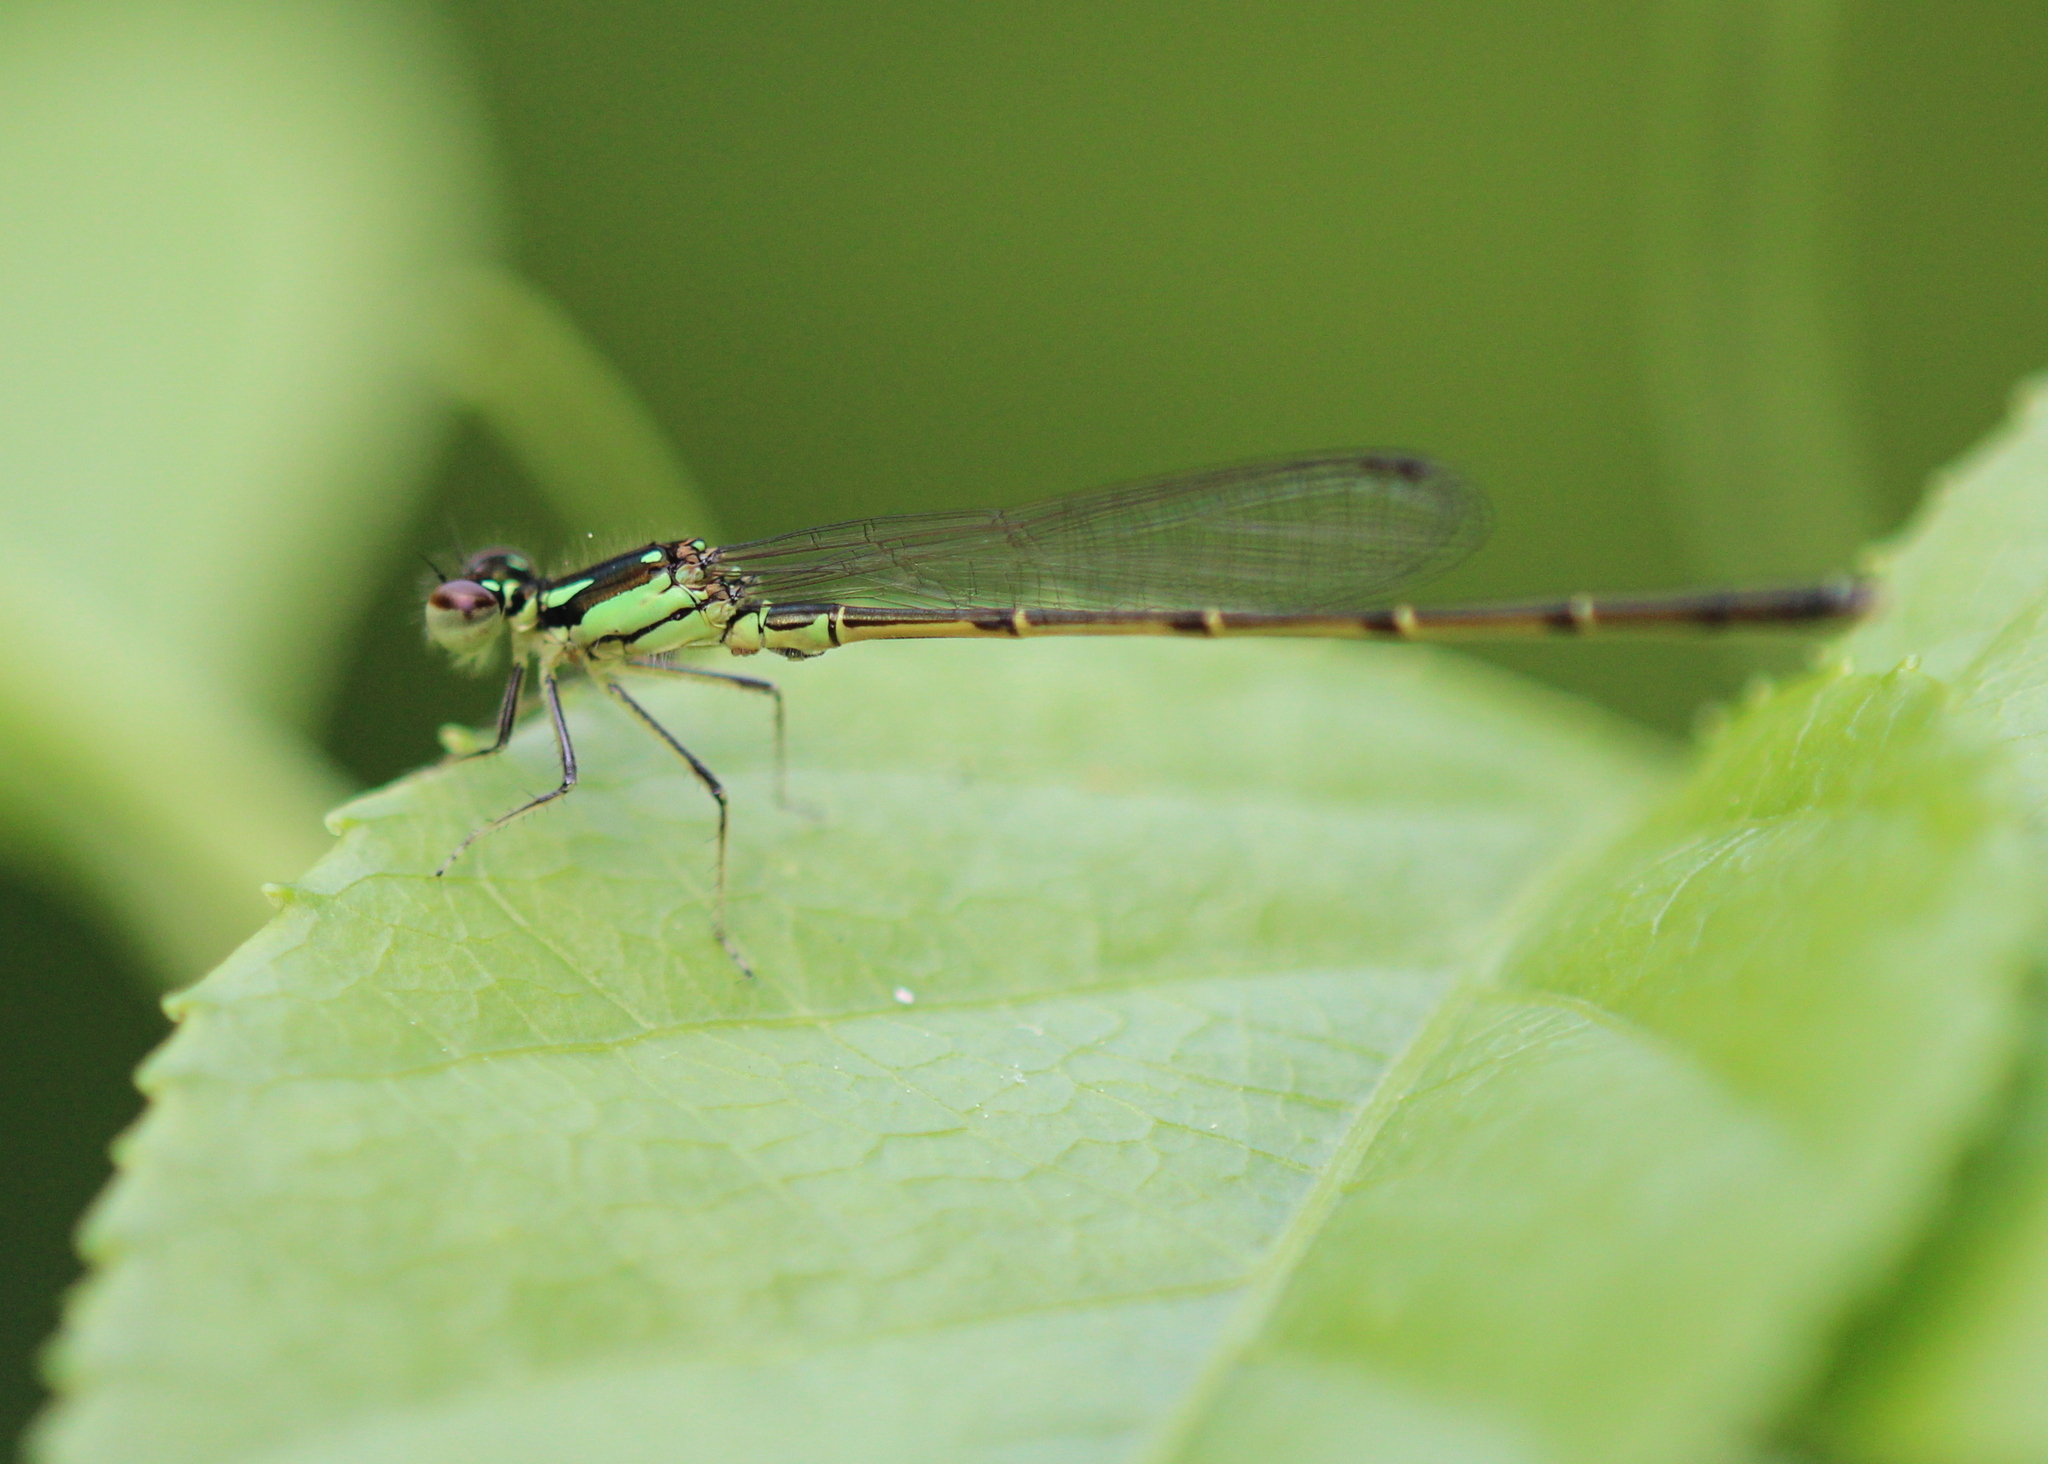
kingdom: Animalia
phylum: Arthropoda
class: Insecta
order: Odonata
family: Coenagrionidae
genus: Ischnura
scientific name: Ischnura posita
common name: Fragile forktail
